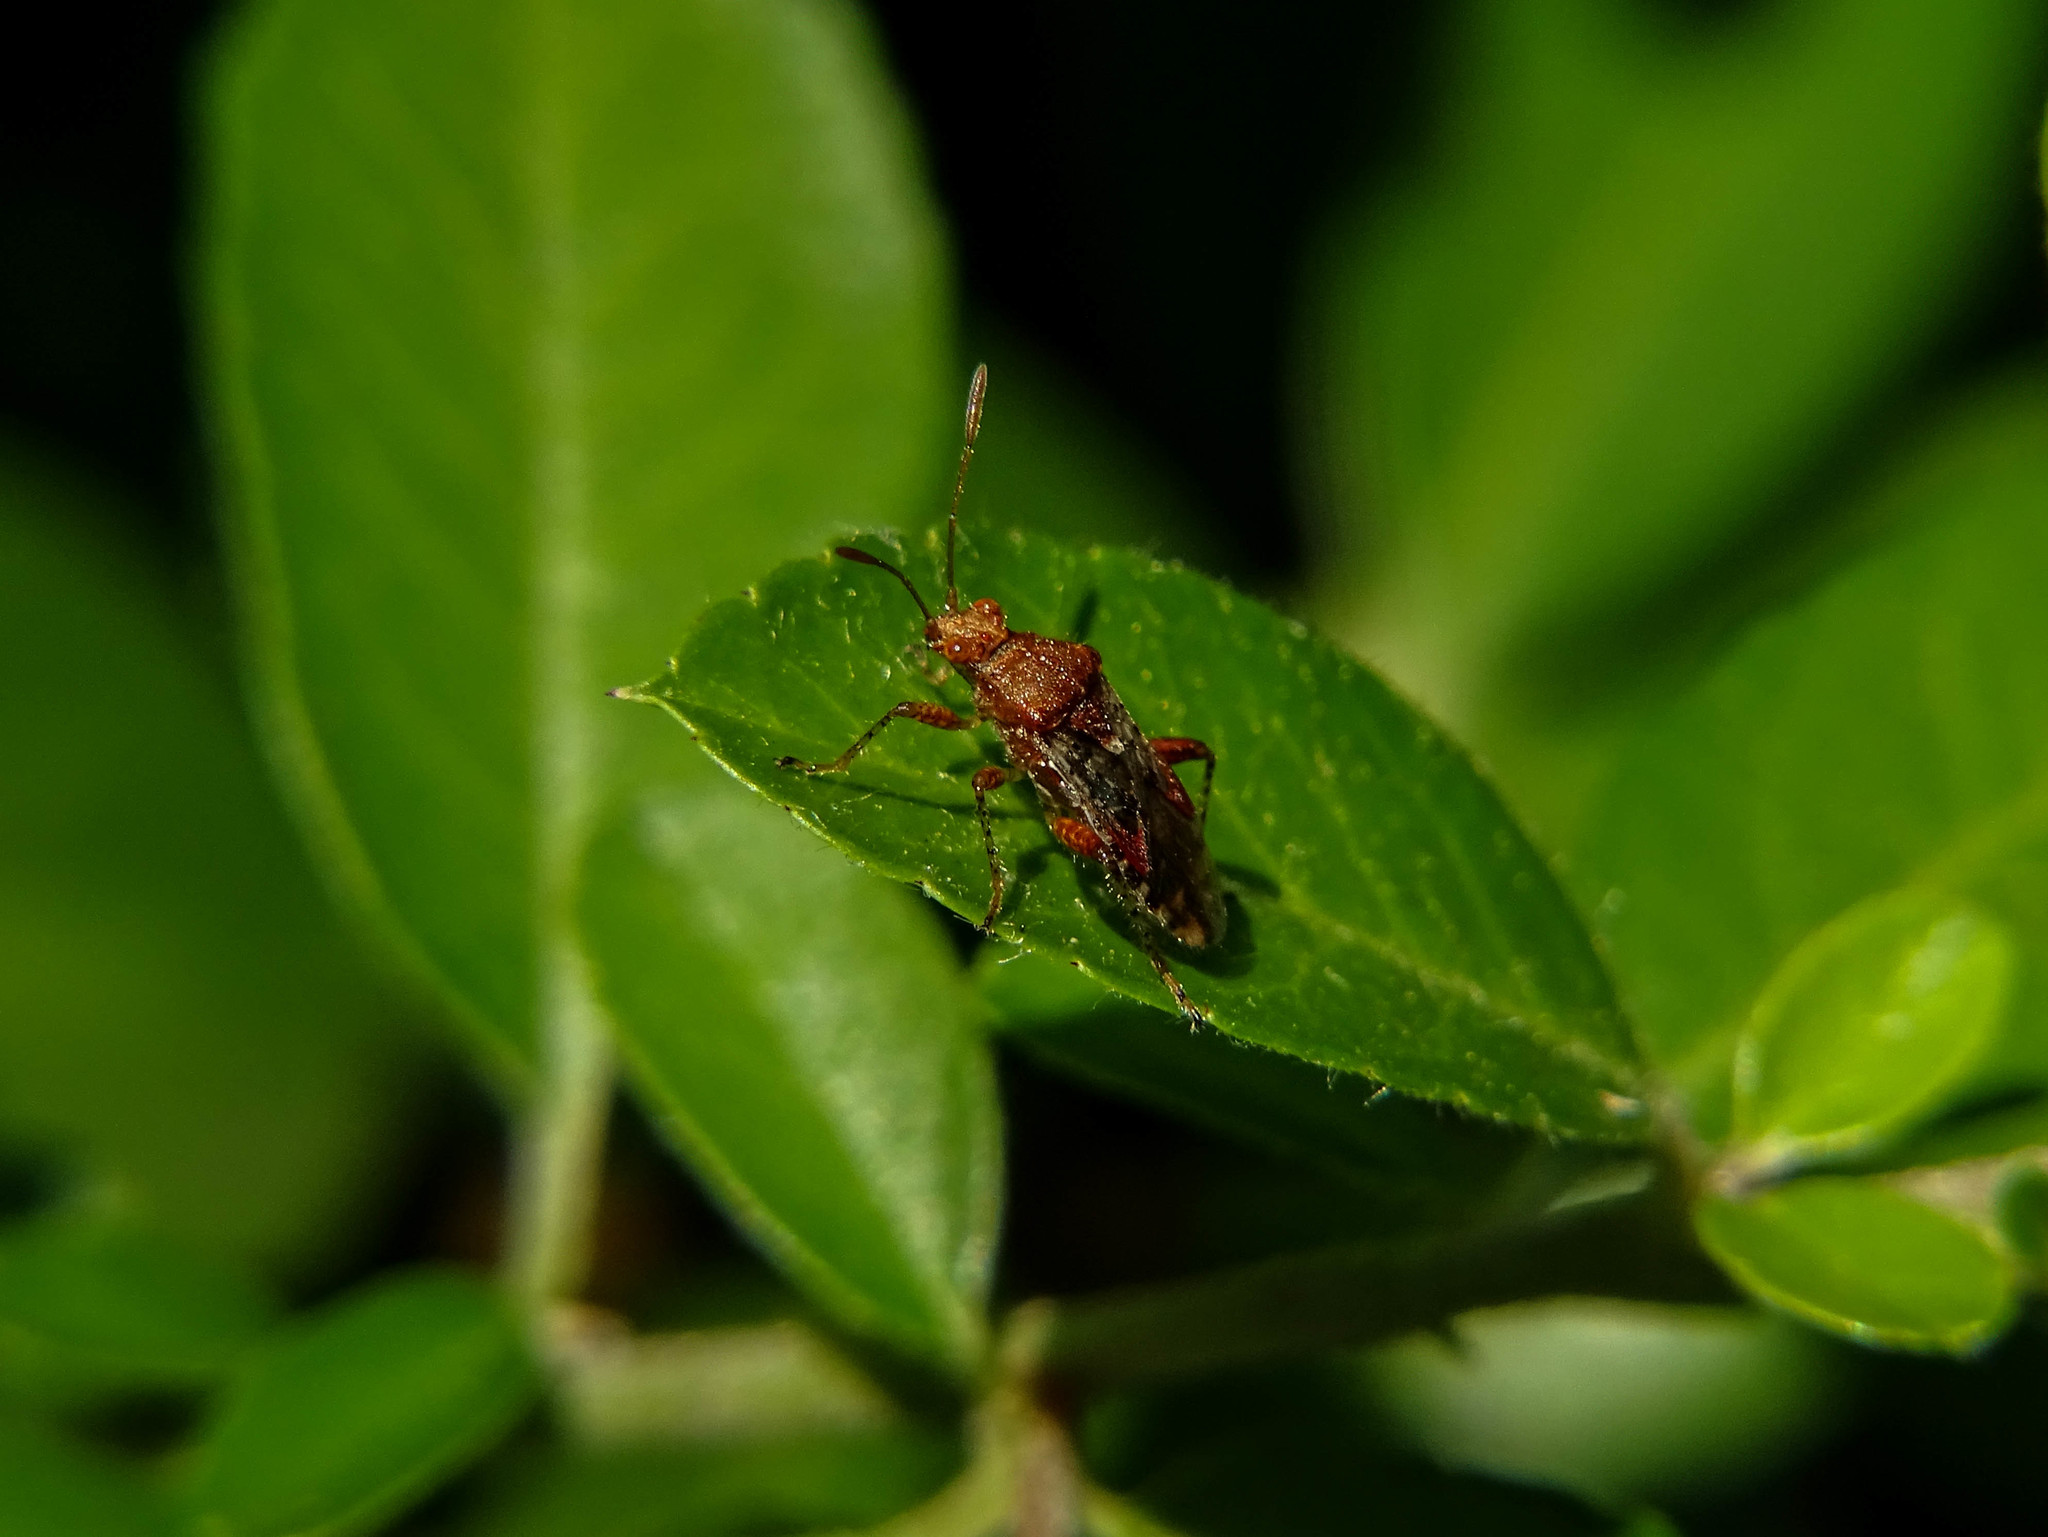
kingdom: Animalia
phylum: Arthropoda
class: Insecta
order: Hemiptera
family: Rhopalidae
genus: Rhopalus
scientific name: Rhopalus subrufus
